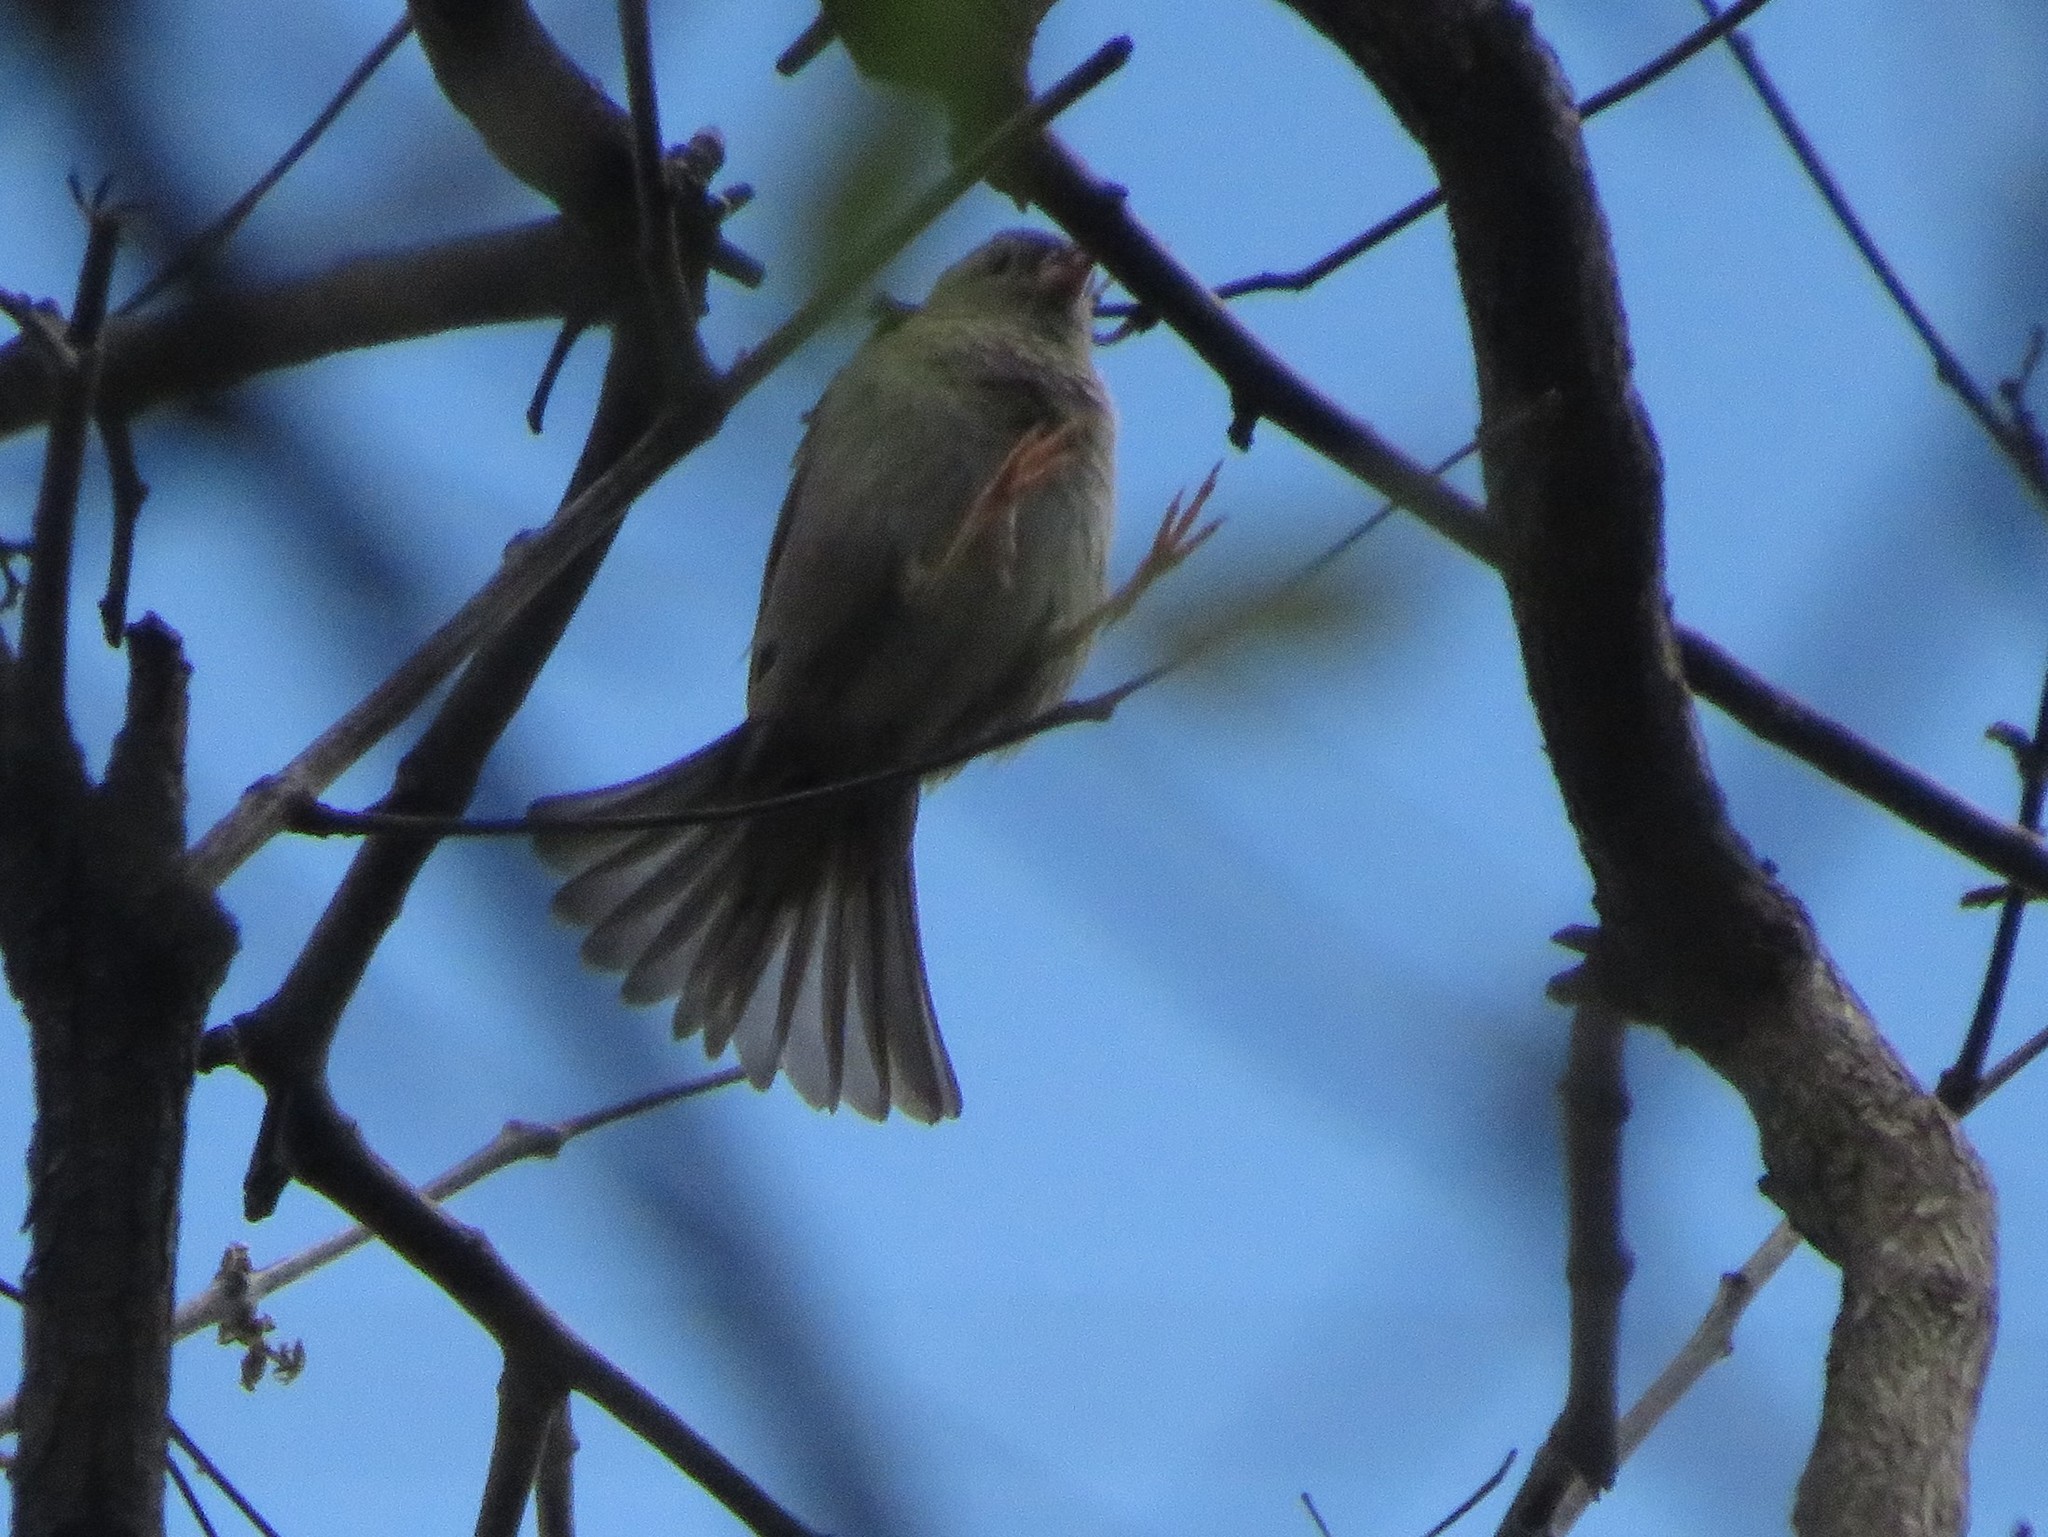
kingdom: Animalia
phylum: Chordata
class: Aves
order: Passeriformes
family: Passeridae
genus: Passer
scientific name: Passer domesticus
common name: House sparrow
